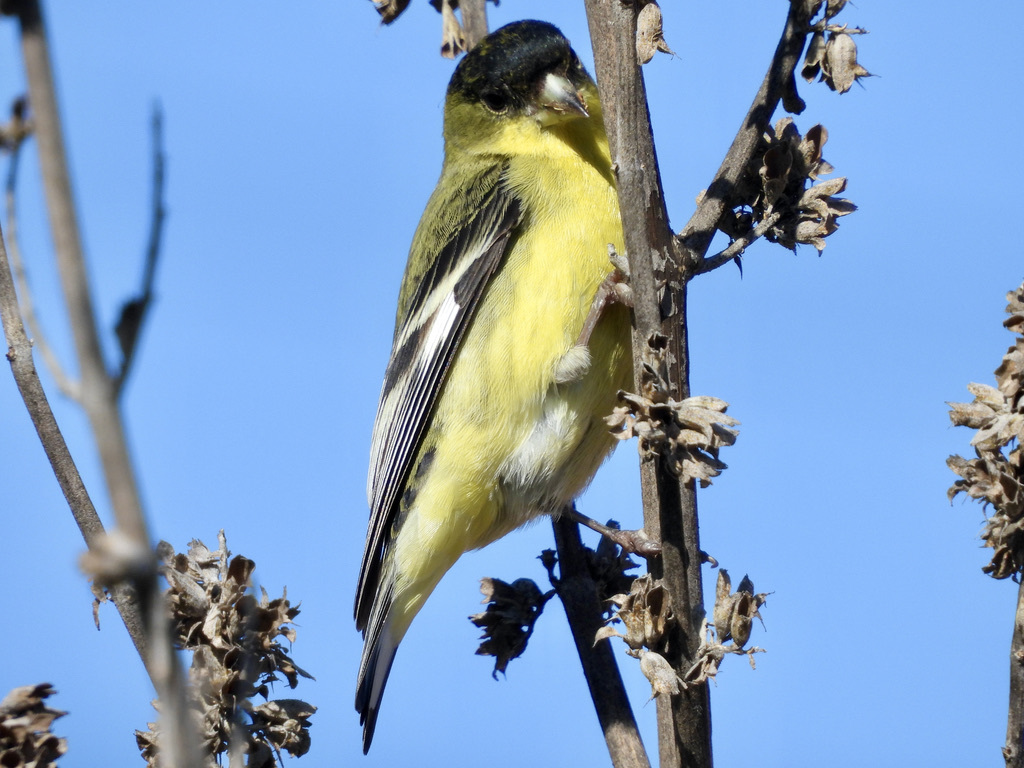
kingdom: Animalia
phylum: Chordata
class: Aves
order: Passeriformes
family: Fringillidae
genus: Spinus
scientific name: Spinus psaltria
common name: Lesser goldfinch
